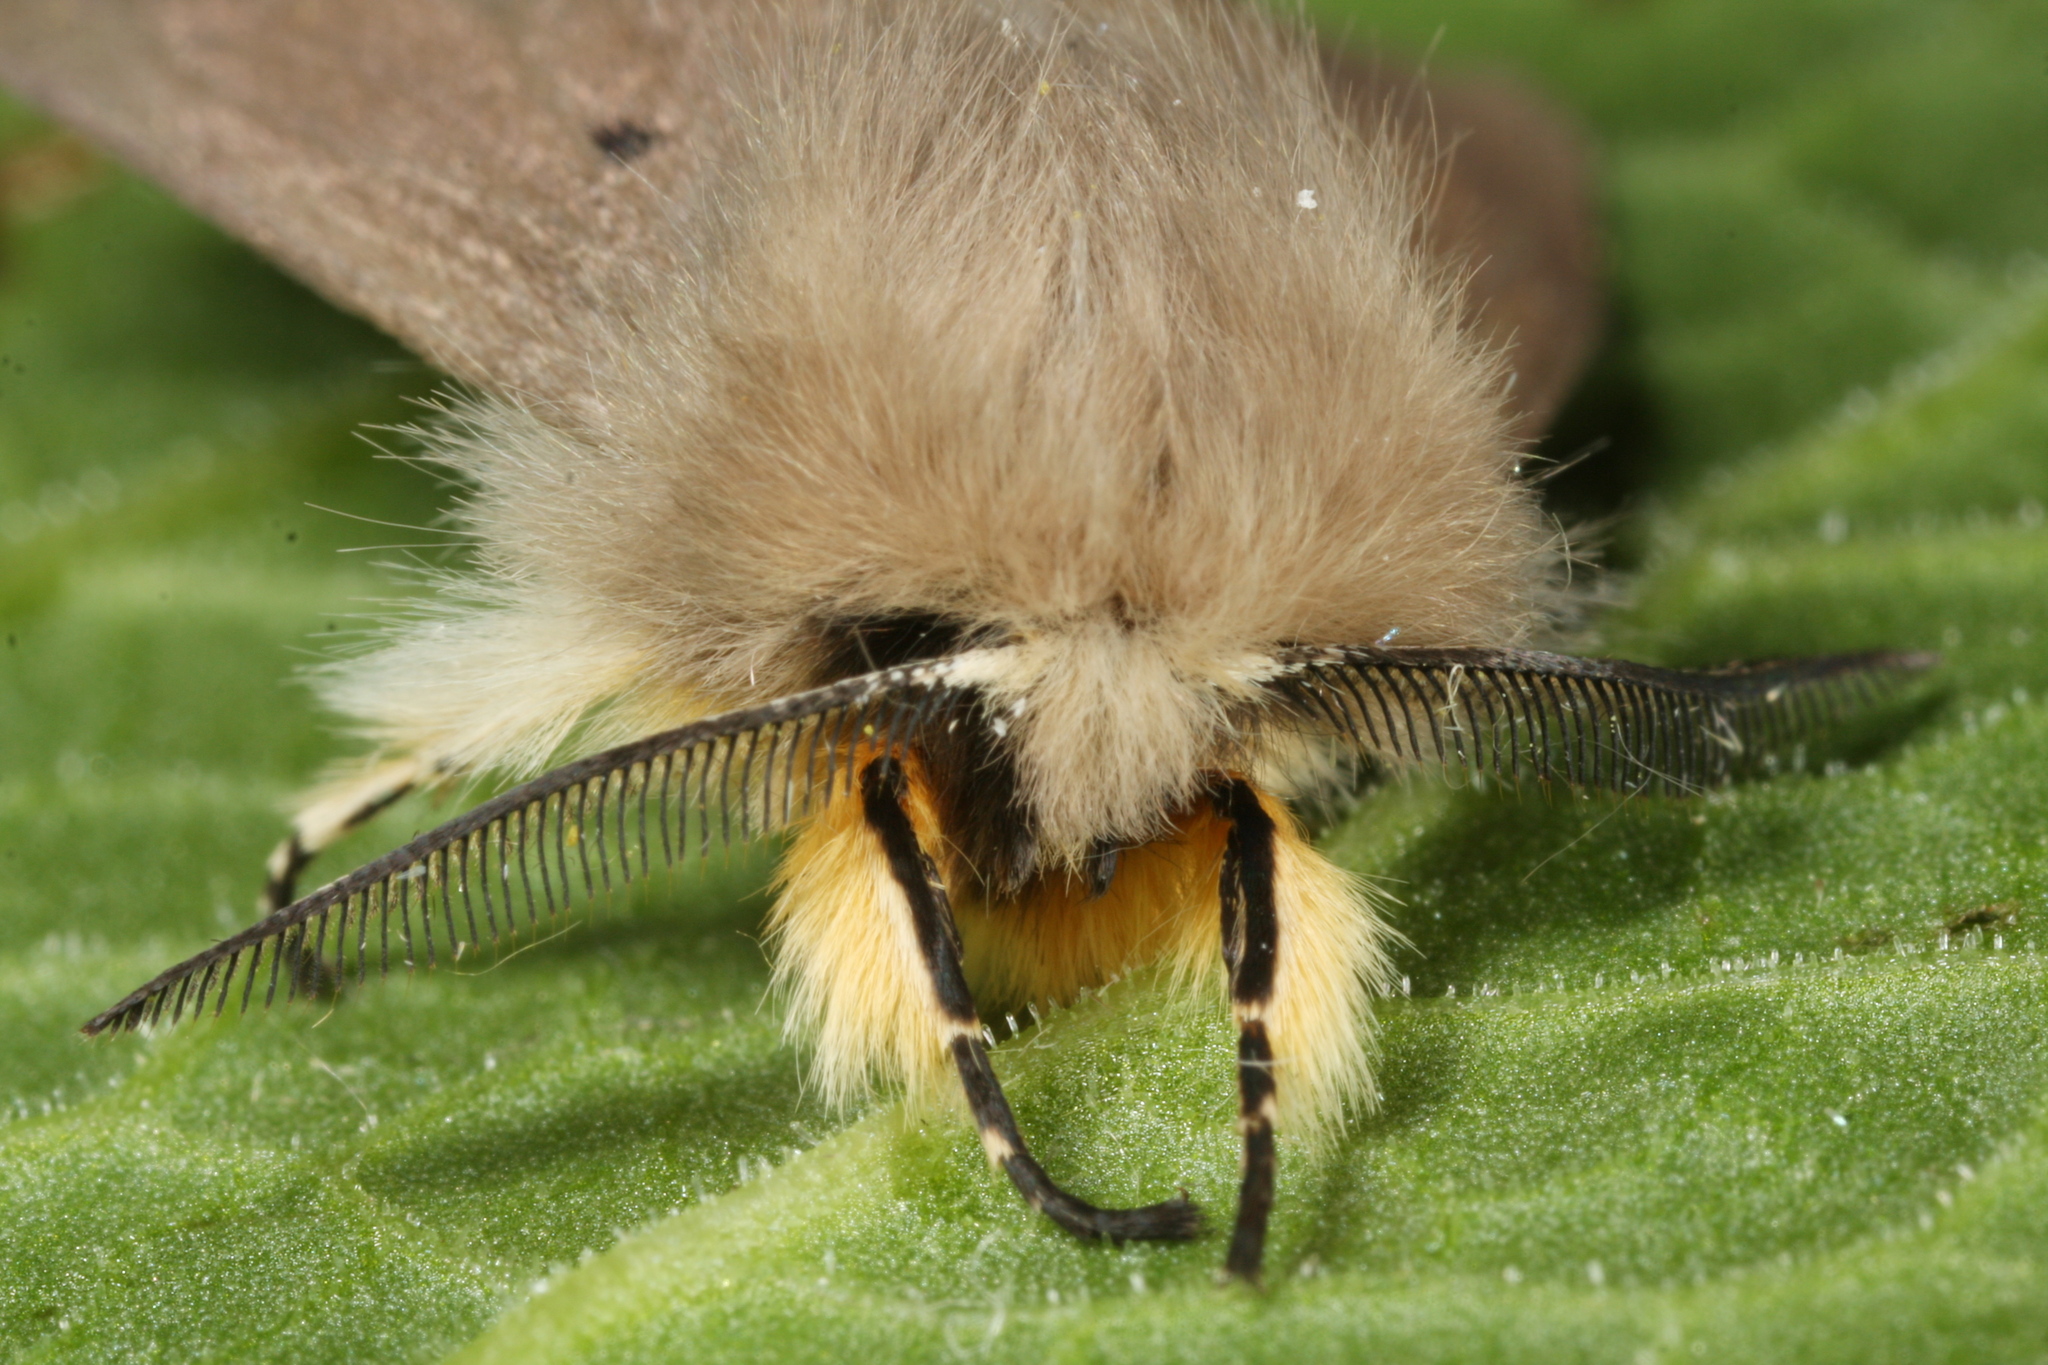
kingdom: Animalia
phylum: Arthropoda
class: Insecta
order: Lepidoptera
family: Erebidae
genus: Diaphora
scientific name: Diaphora mendica
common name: Muslin moth
